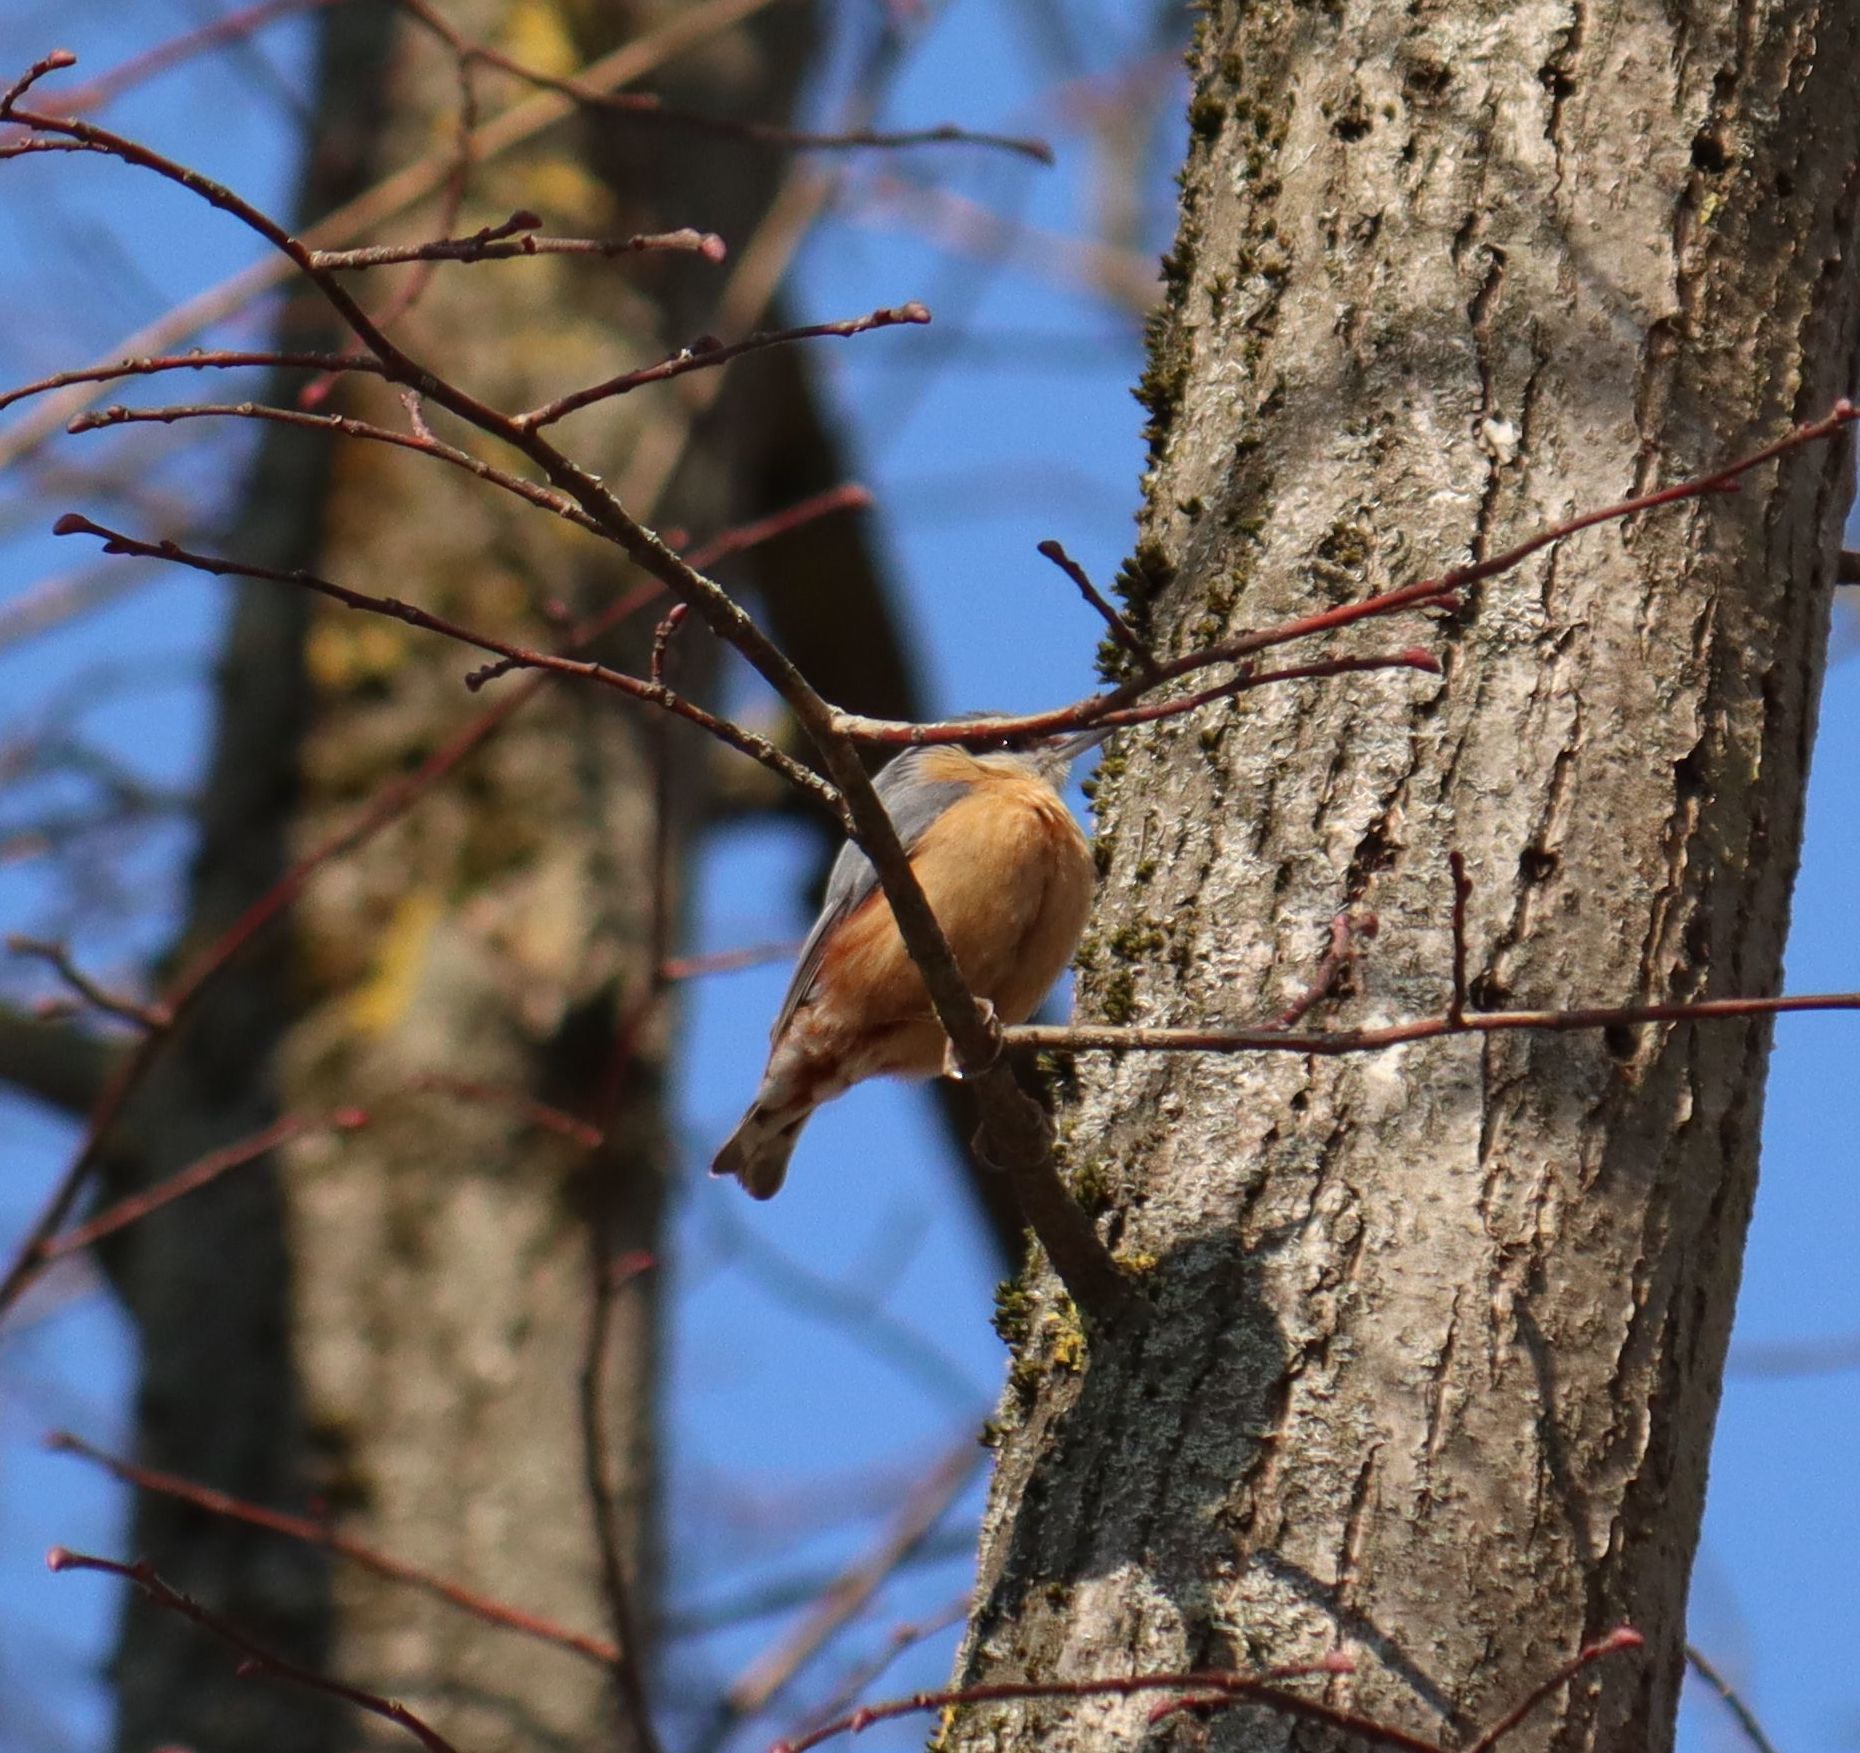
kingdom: Animalia
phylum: Chordata
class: Aves
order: Passeriformes
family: Sittidae
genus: Sitta
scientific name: Sitta europaea
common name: Eurasian nuthatch
